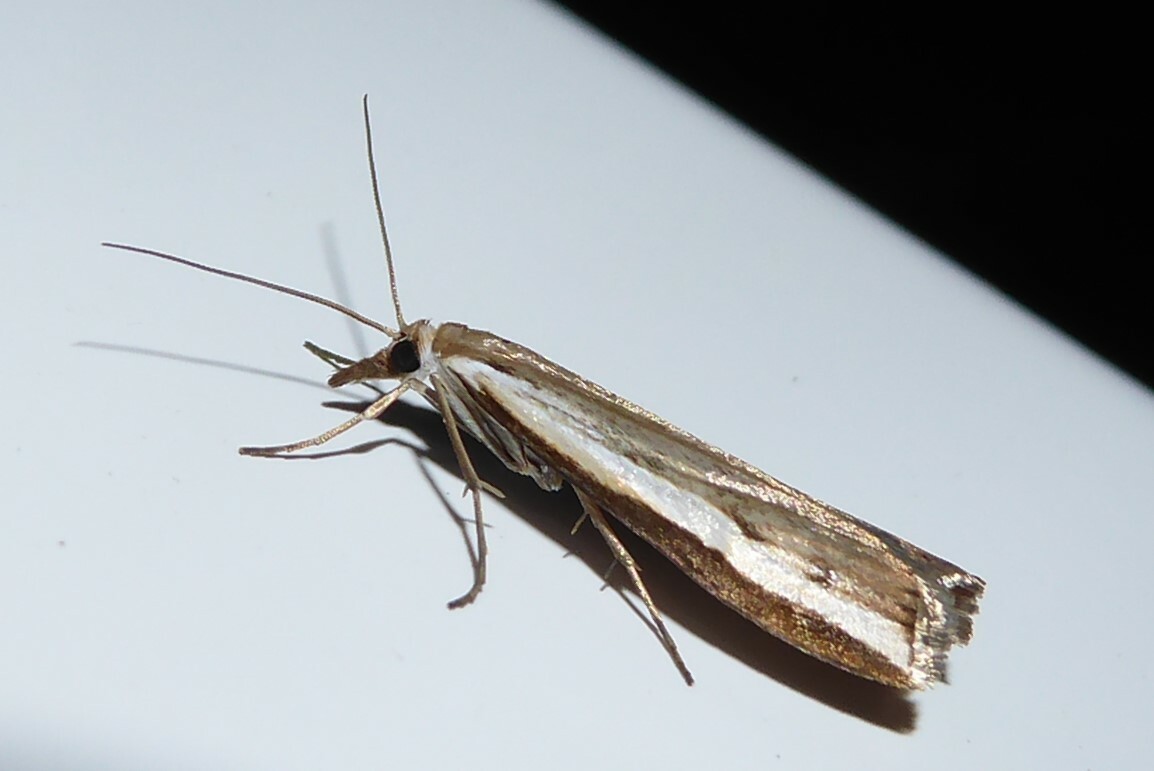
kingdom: Animalia
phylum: Arthropoda
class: Insecta
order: Lepidoptera
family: Crambidae
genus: Orocrambus
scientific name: Orocrambus flexuosellus
